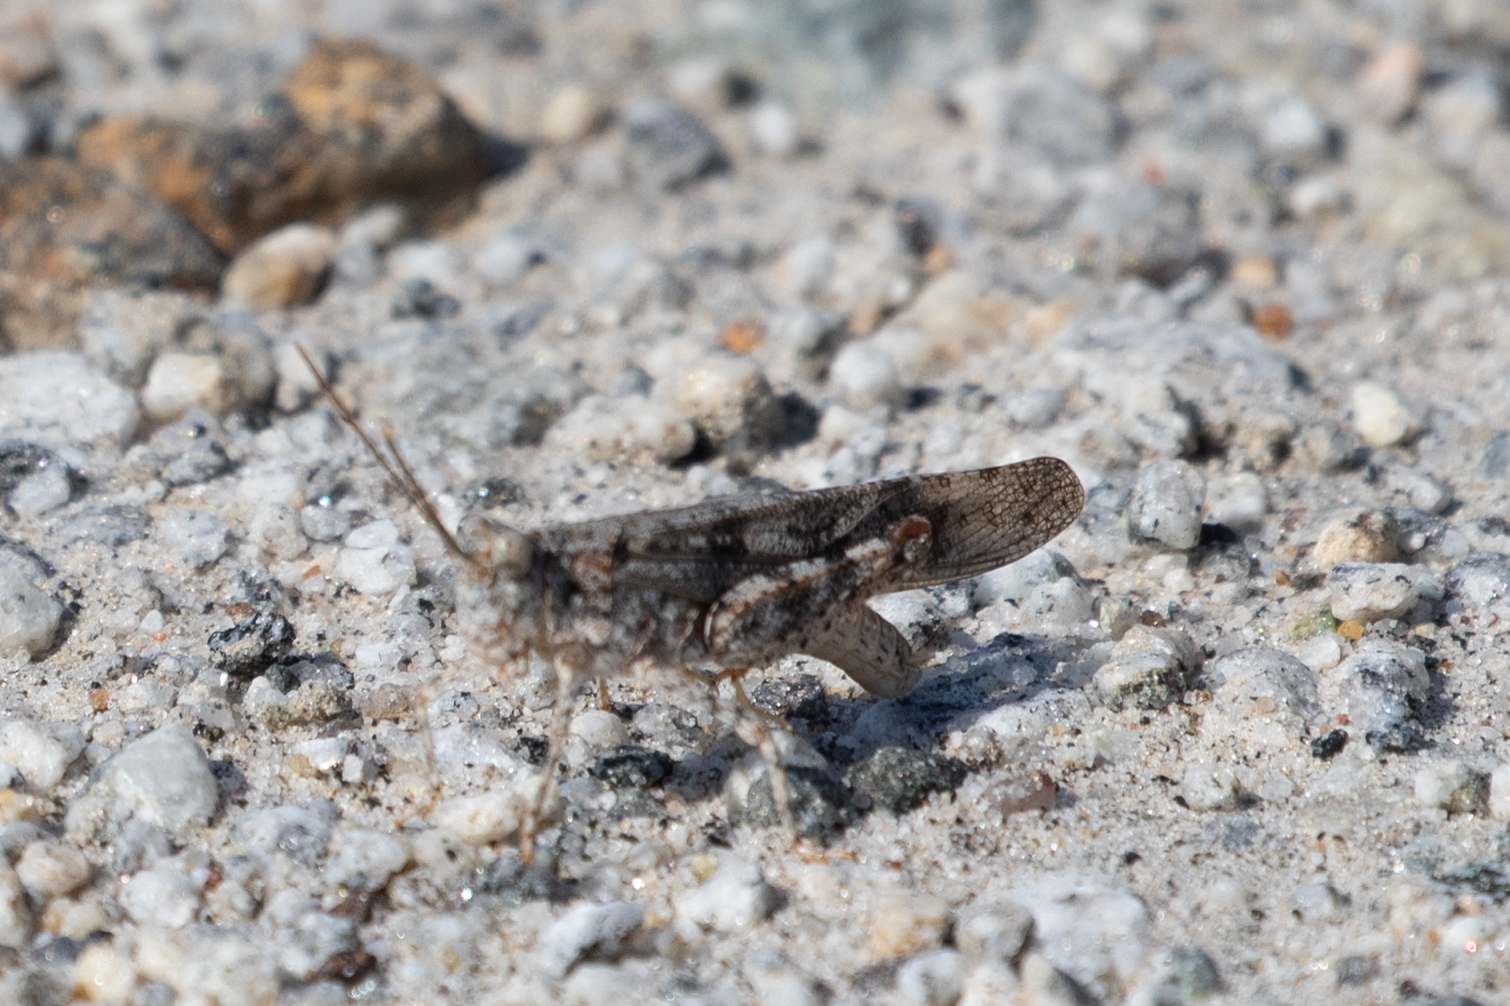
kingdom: Animalia
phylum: Arthropoda
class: Insecta
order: Orthoptera
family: Acrididae
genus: Trimerotropis
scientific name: Trimerotropis maritima
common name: Seaside locust
